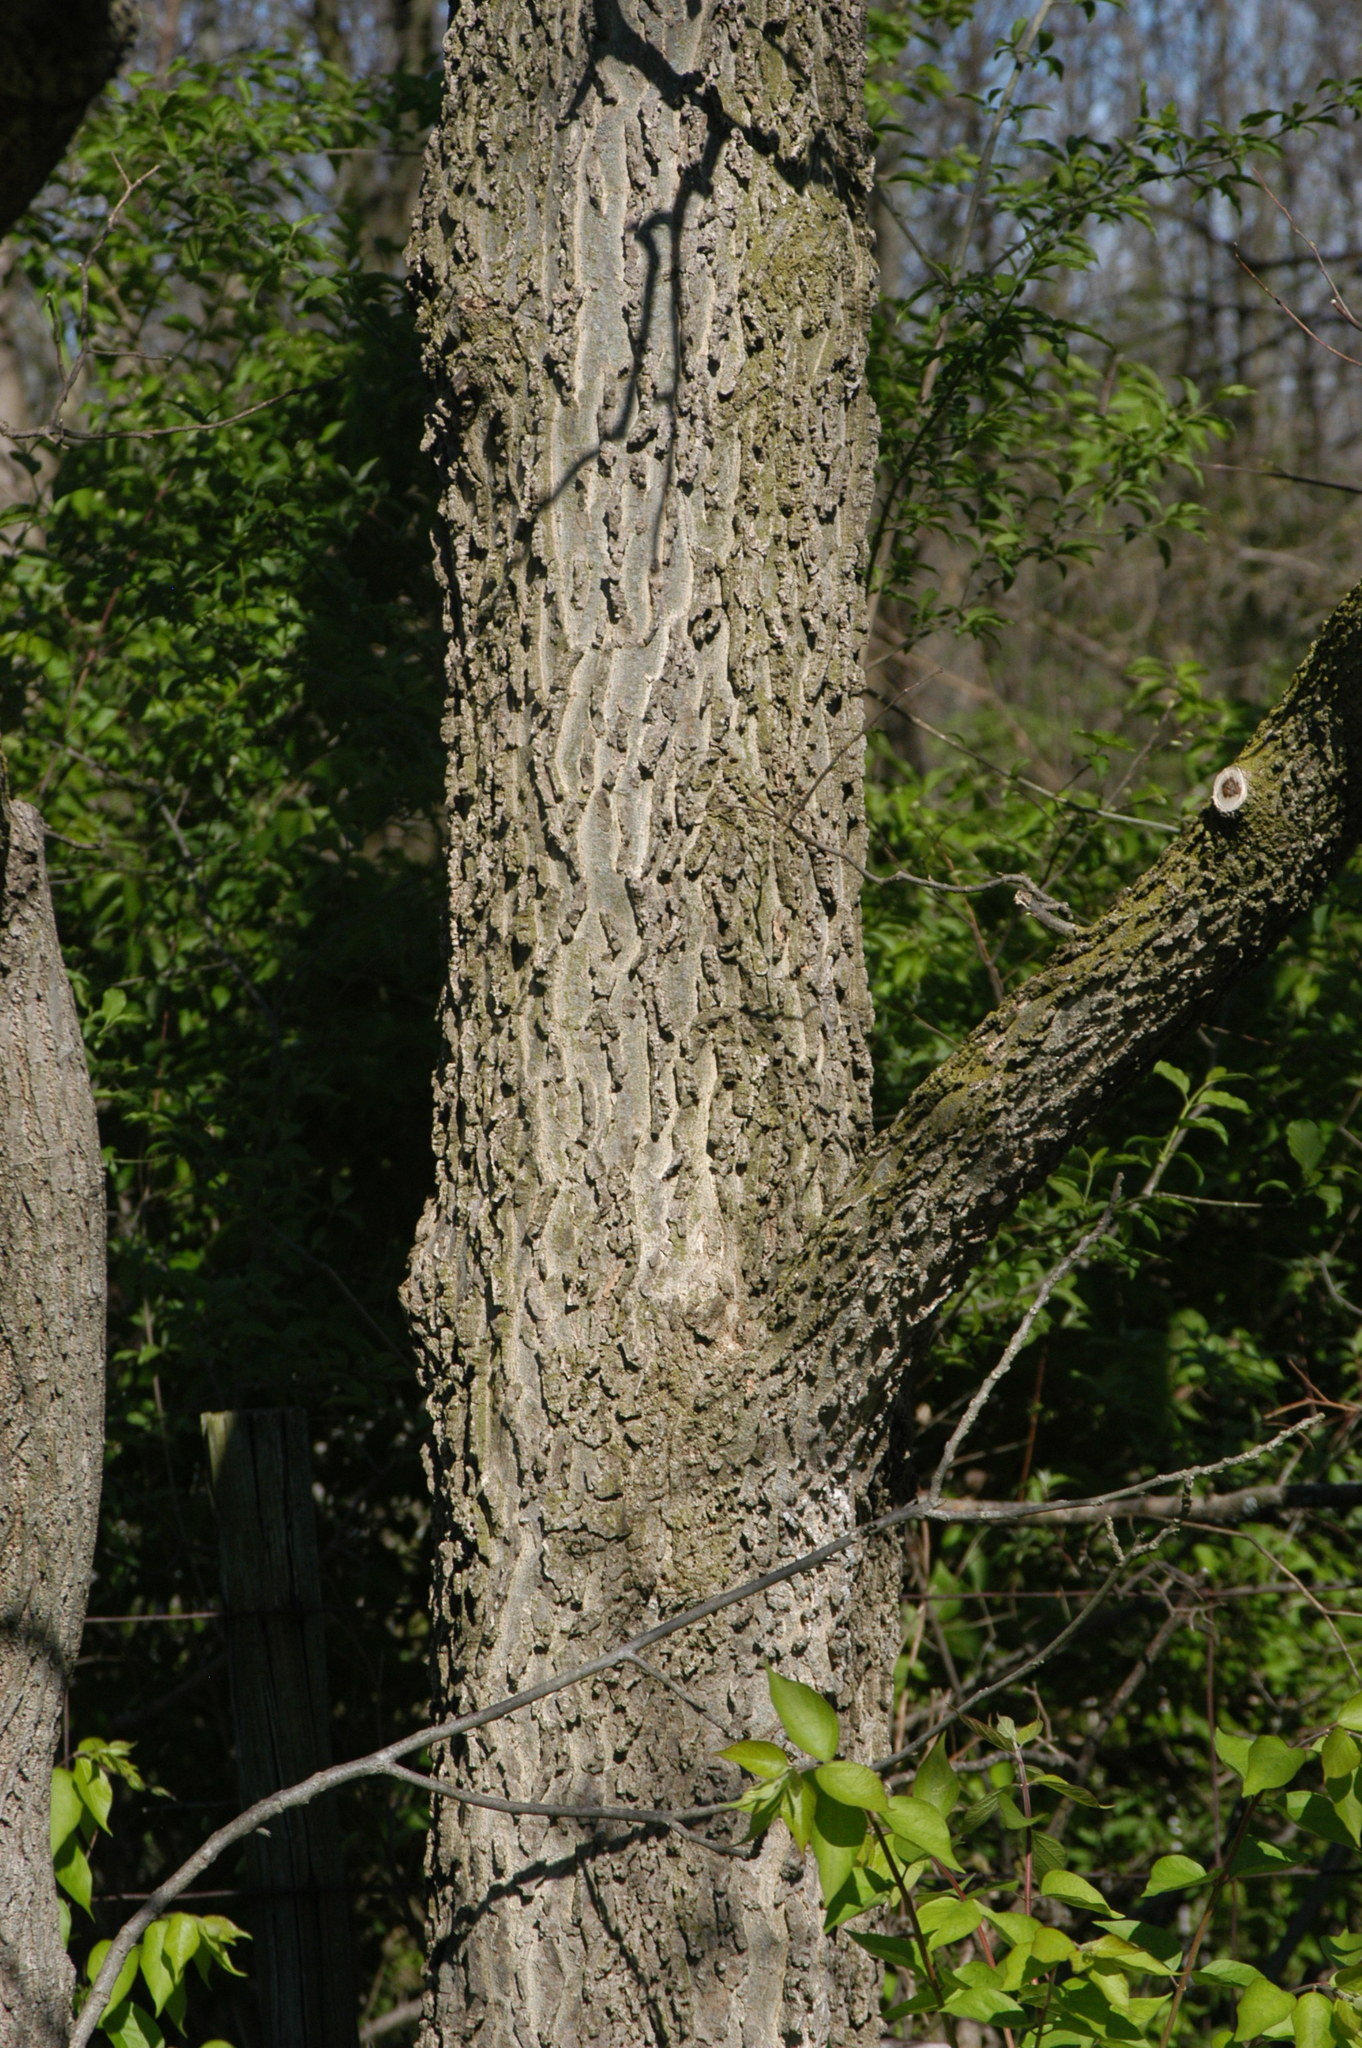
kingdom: Plantae
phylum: Tracheophyta
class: Magnoliopsida
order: Rosales
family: Cannabaceae
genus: Celtis
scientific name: Celtis occidentalis
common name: Common hackberry
